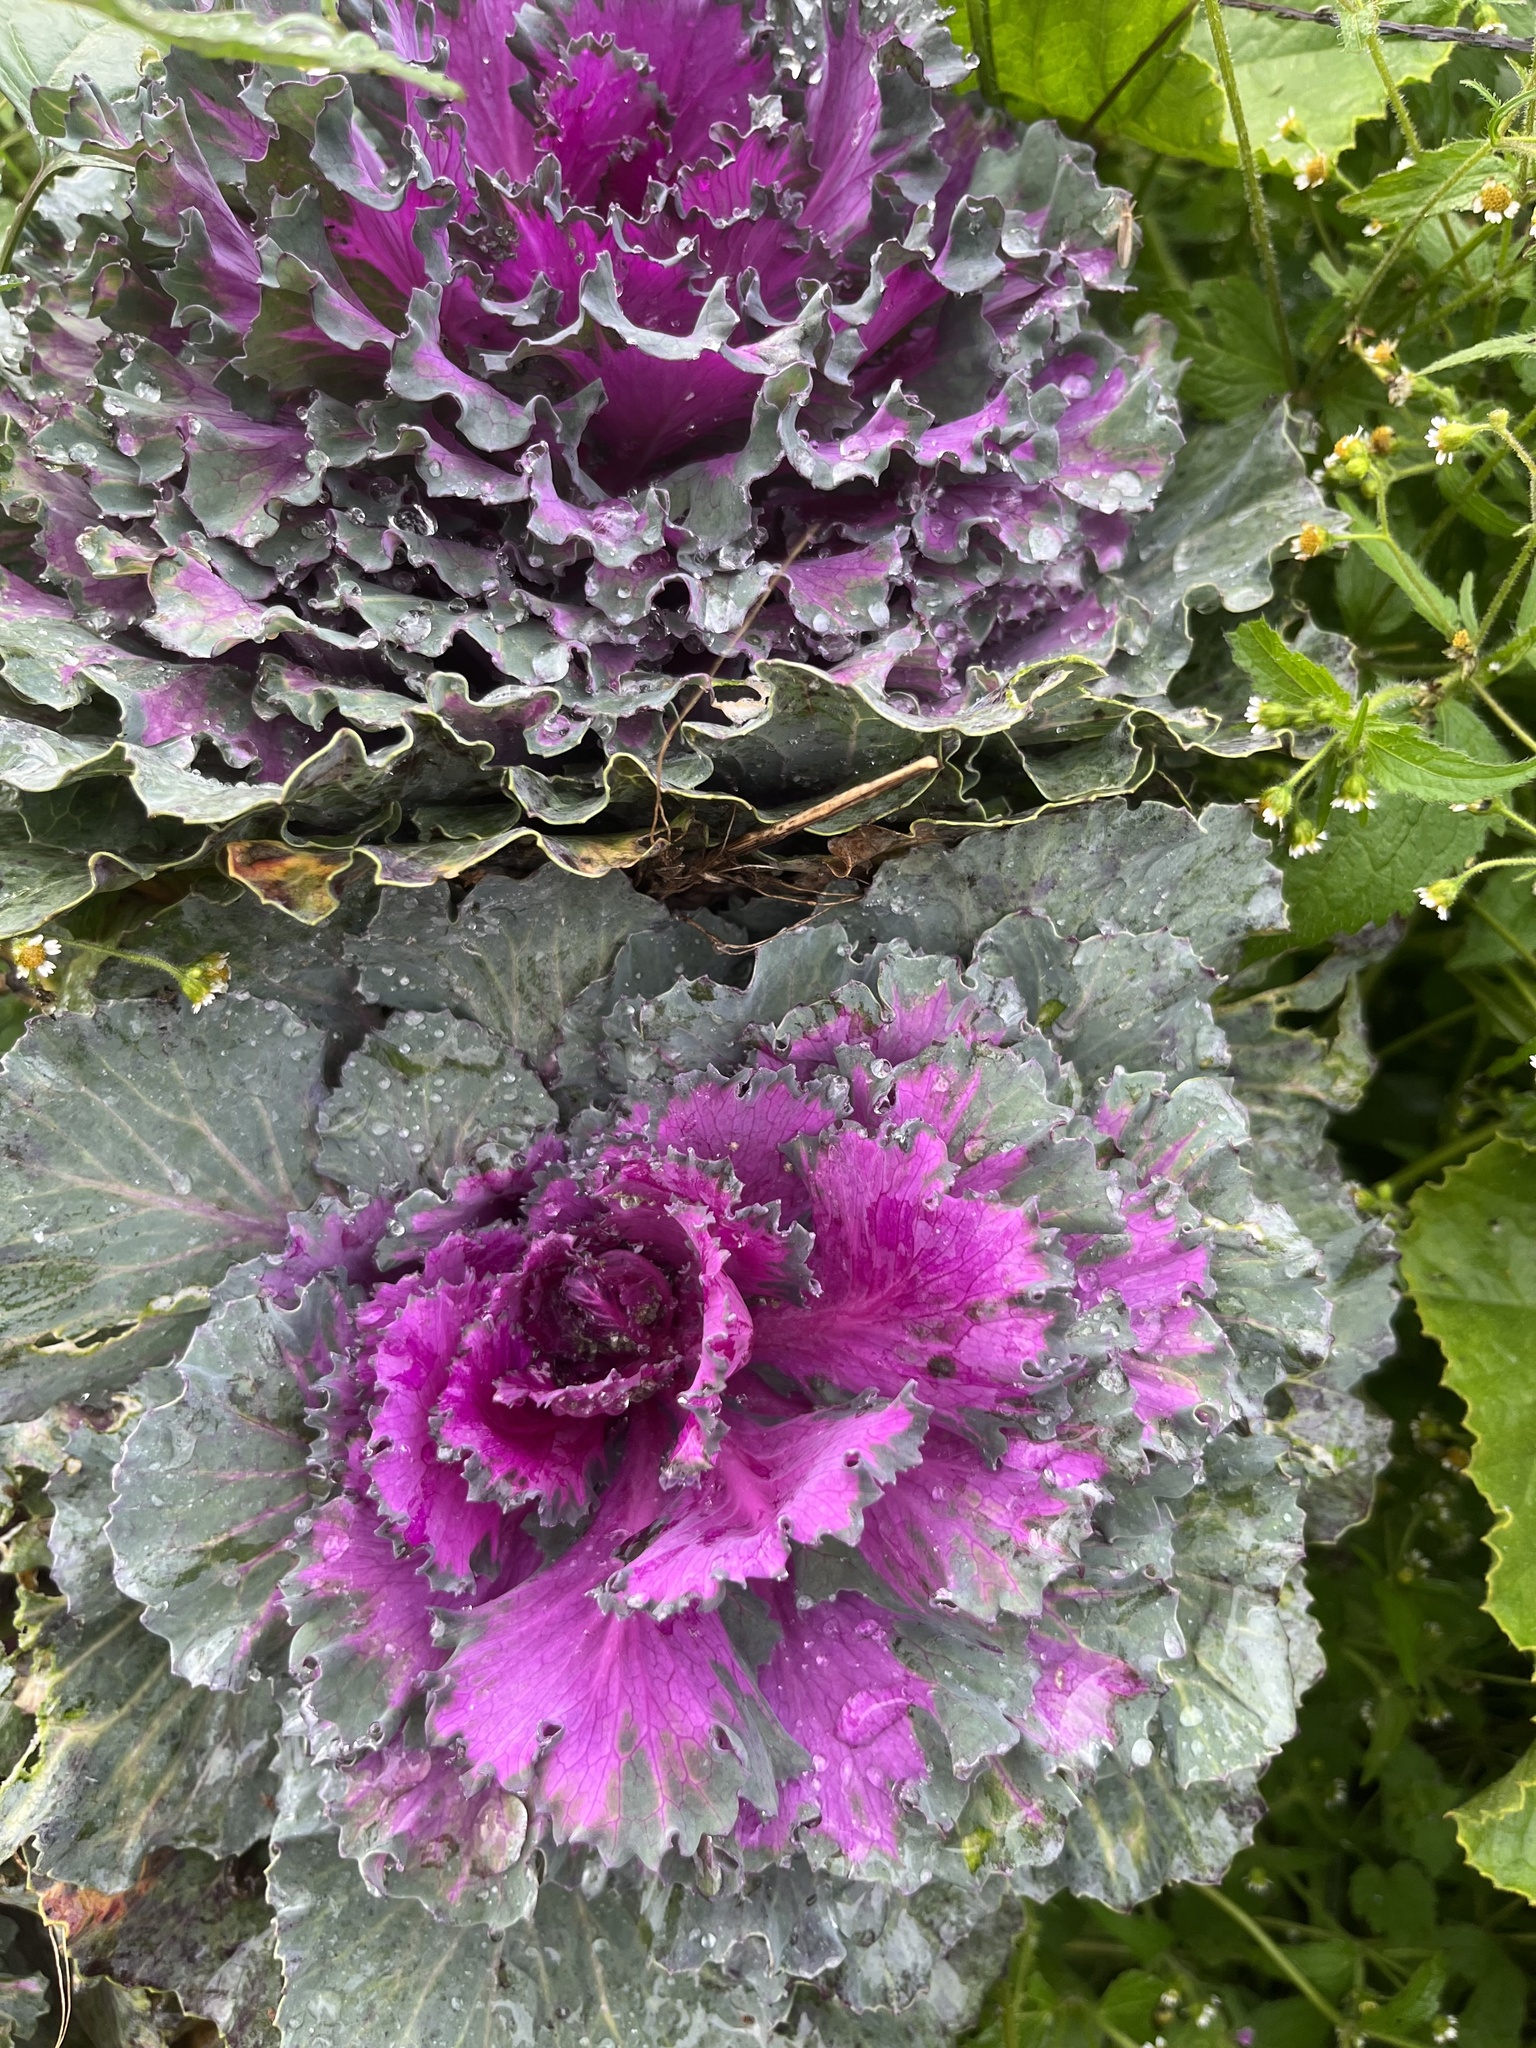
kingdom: Plantae
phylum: Tracheophyta
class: Magnoliopsida
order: Brassicales
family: Brassicaceae
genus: Brassica
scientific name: Brassica oleracea
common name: Cabbage
